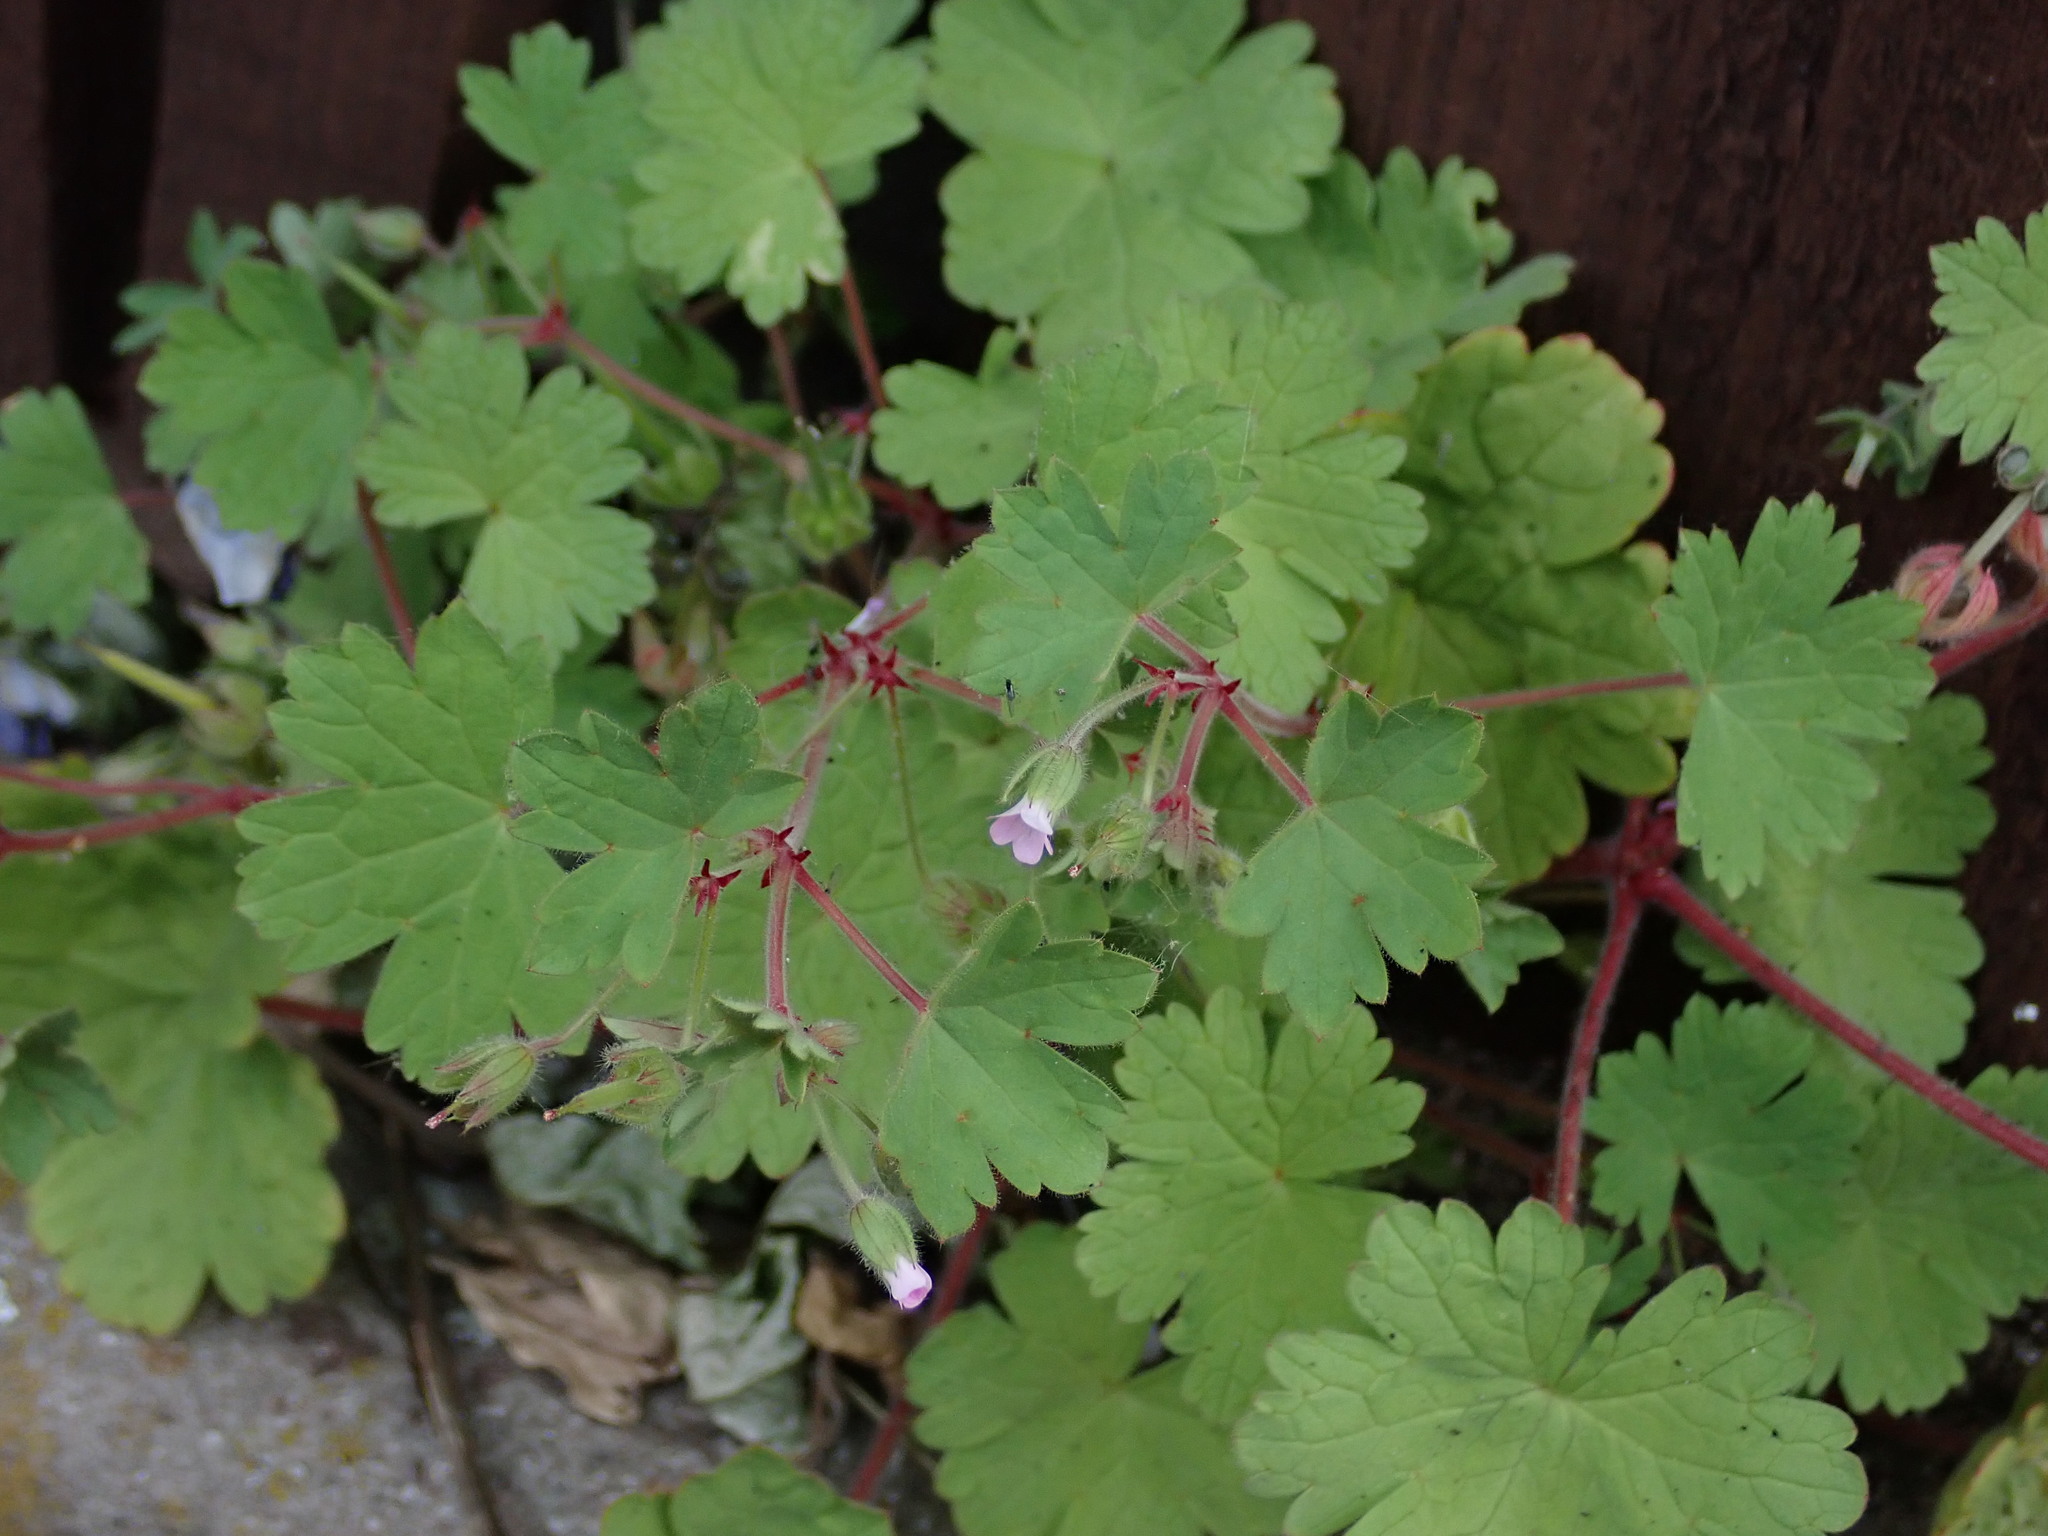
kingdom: Plantae
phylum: Tracheophyta
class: Magnoliopsida
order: Geraniales
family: Geraniaceae
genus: Geranium
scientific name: Geranium rotundifolium
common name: Round-leaved crane's-bill
